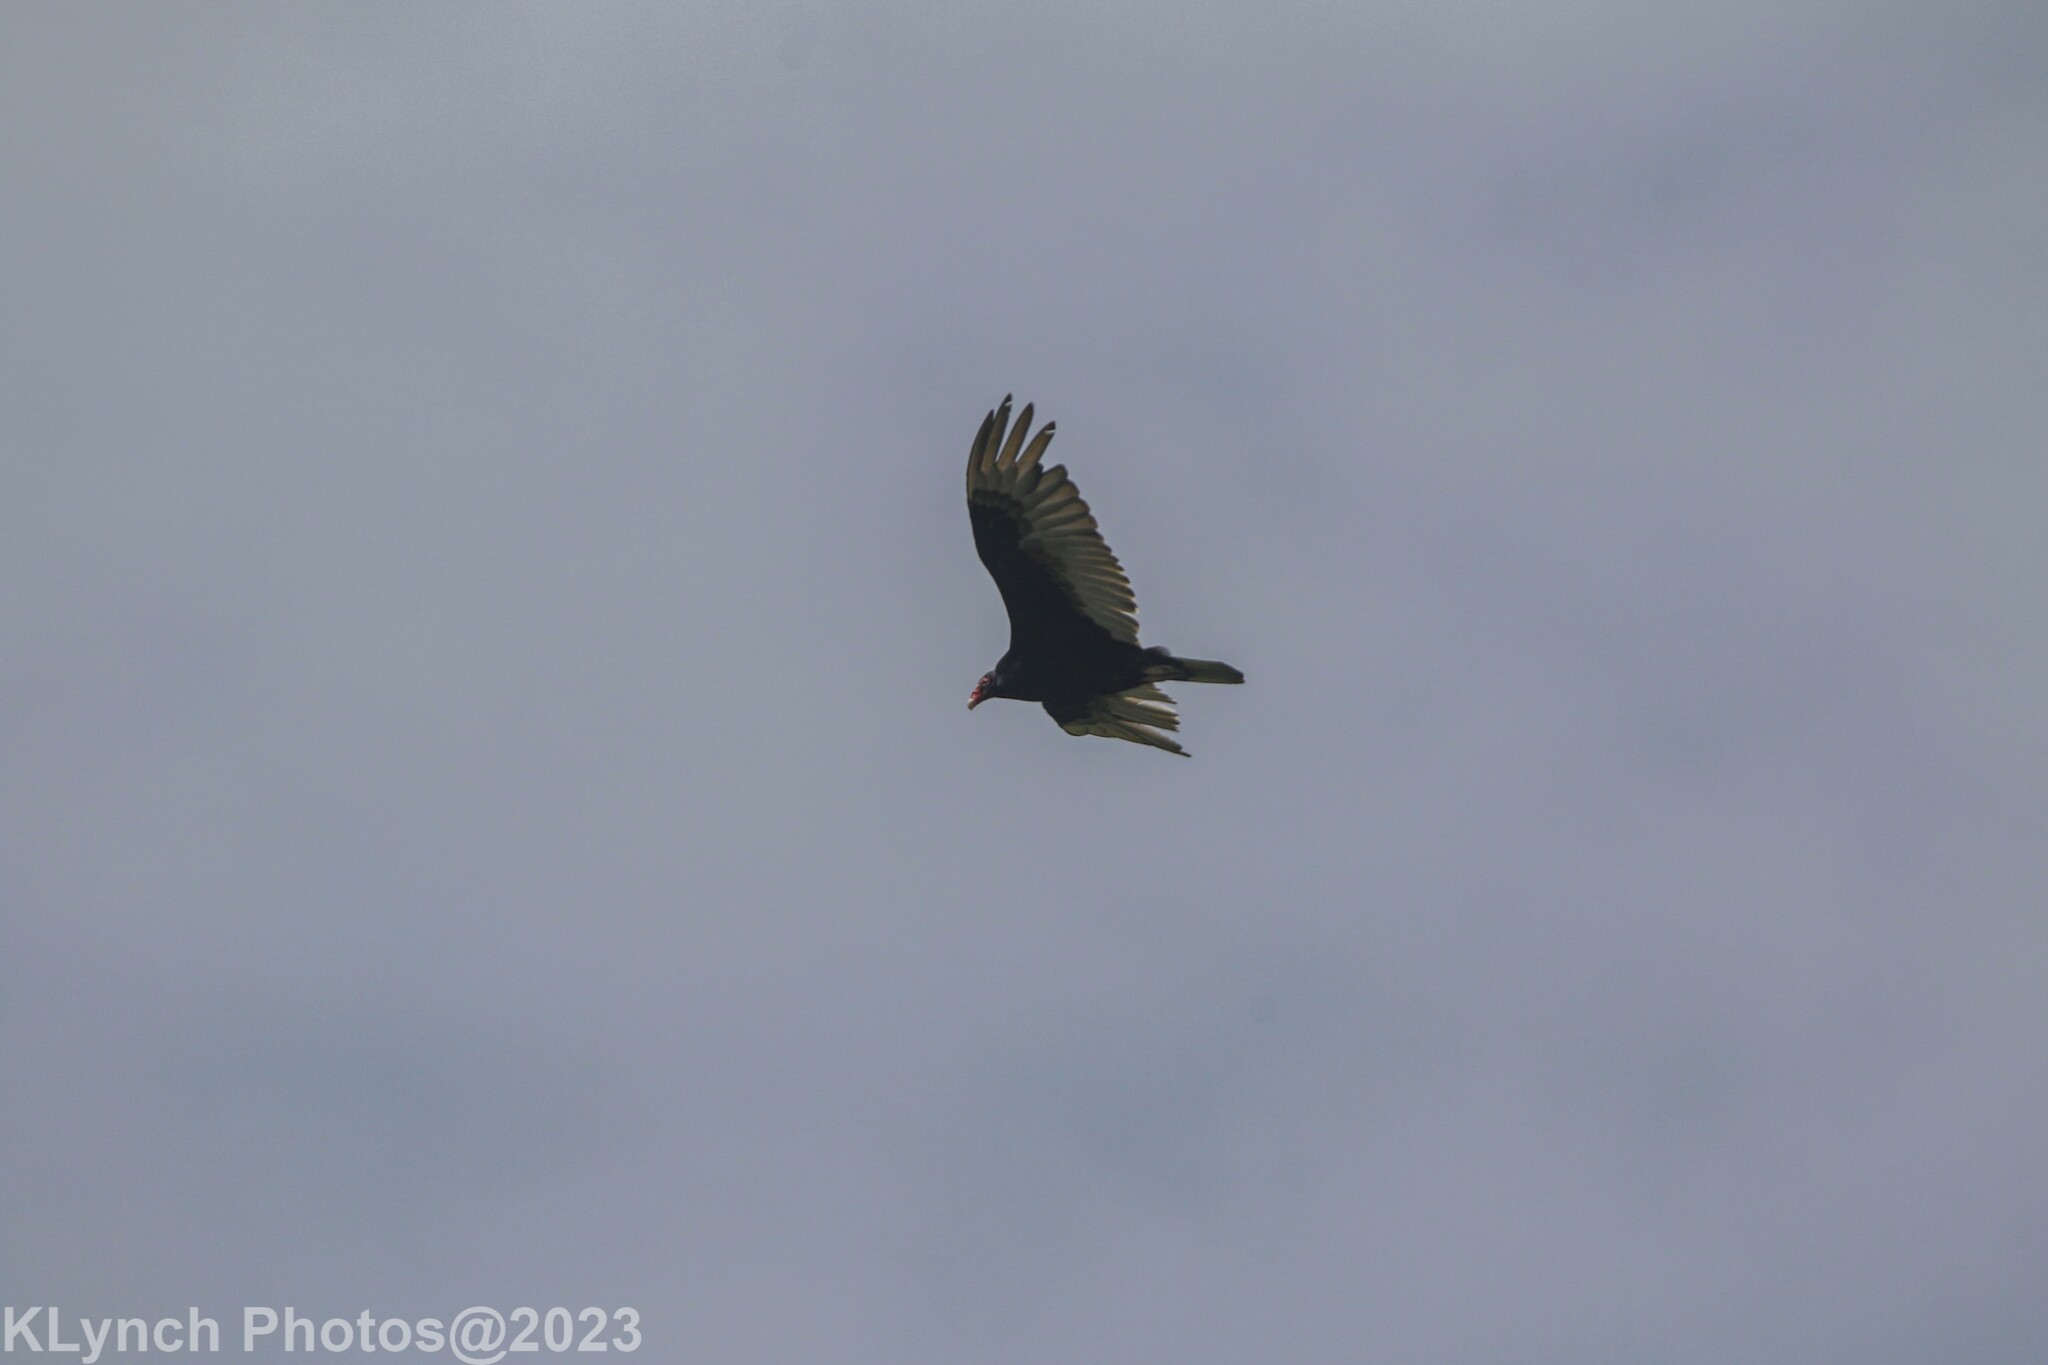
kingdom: Animalia
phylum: Chordata
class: Aves
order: Accipitriformes
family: Cathartidae
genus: Cathartes
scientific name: Cathartes aura
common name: Turkey vulture
